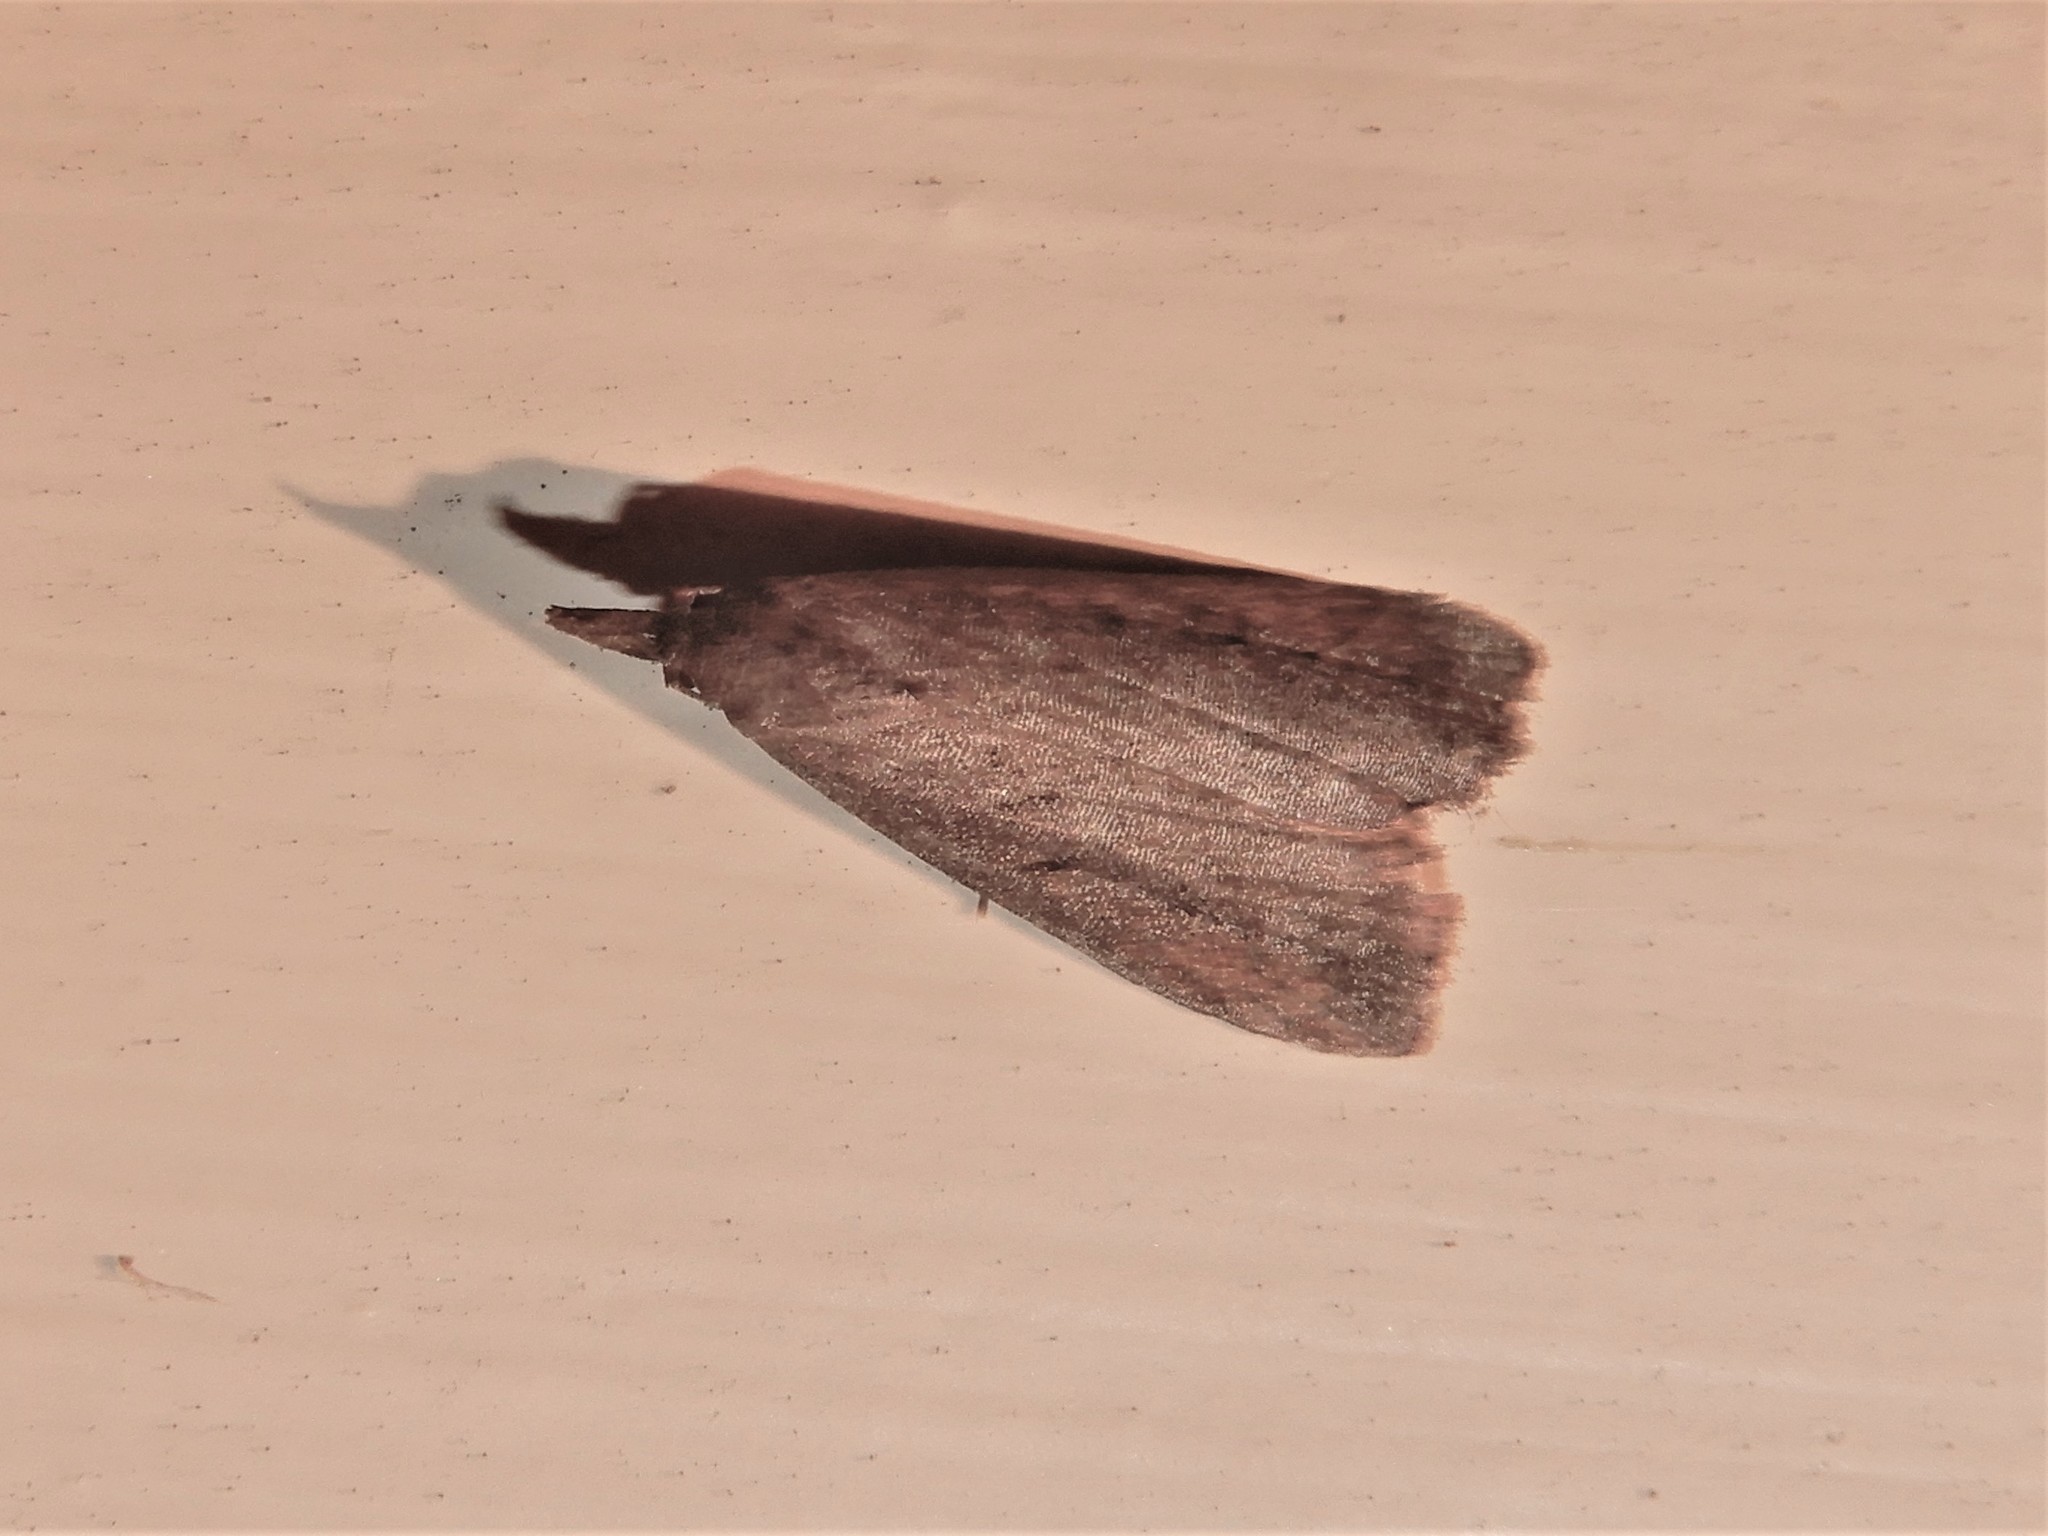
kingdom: Animalia
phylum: Arthropoda
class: Insecta
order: Lepidoptera
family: Erebidae
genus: Schrankia
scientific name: Schrankia costaestrigalis
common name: Pinion-streaked snout
